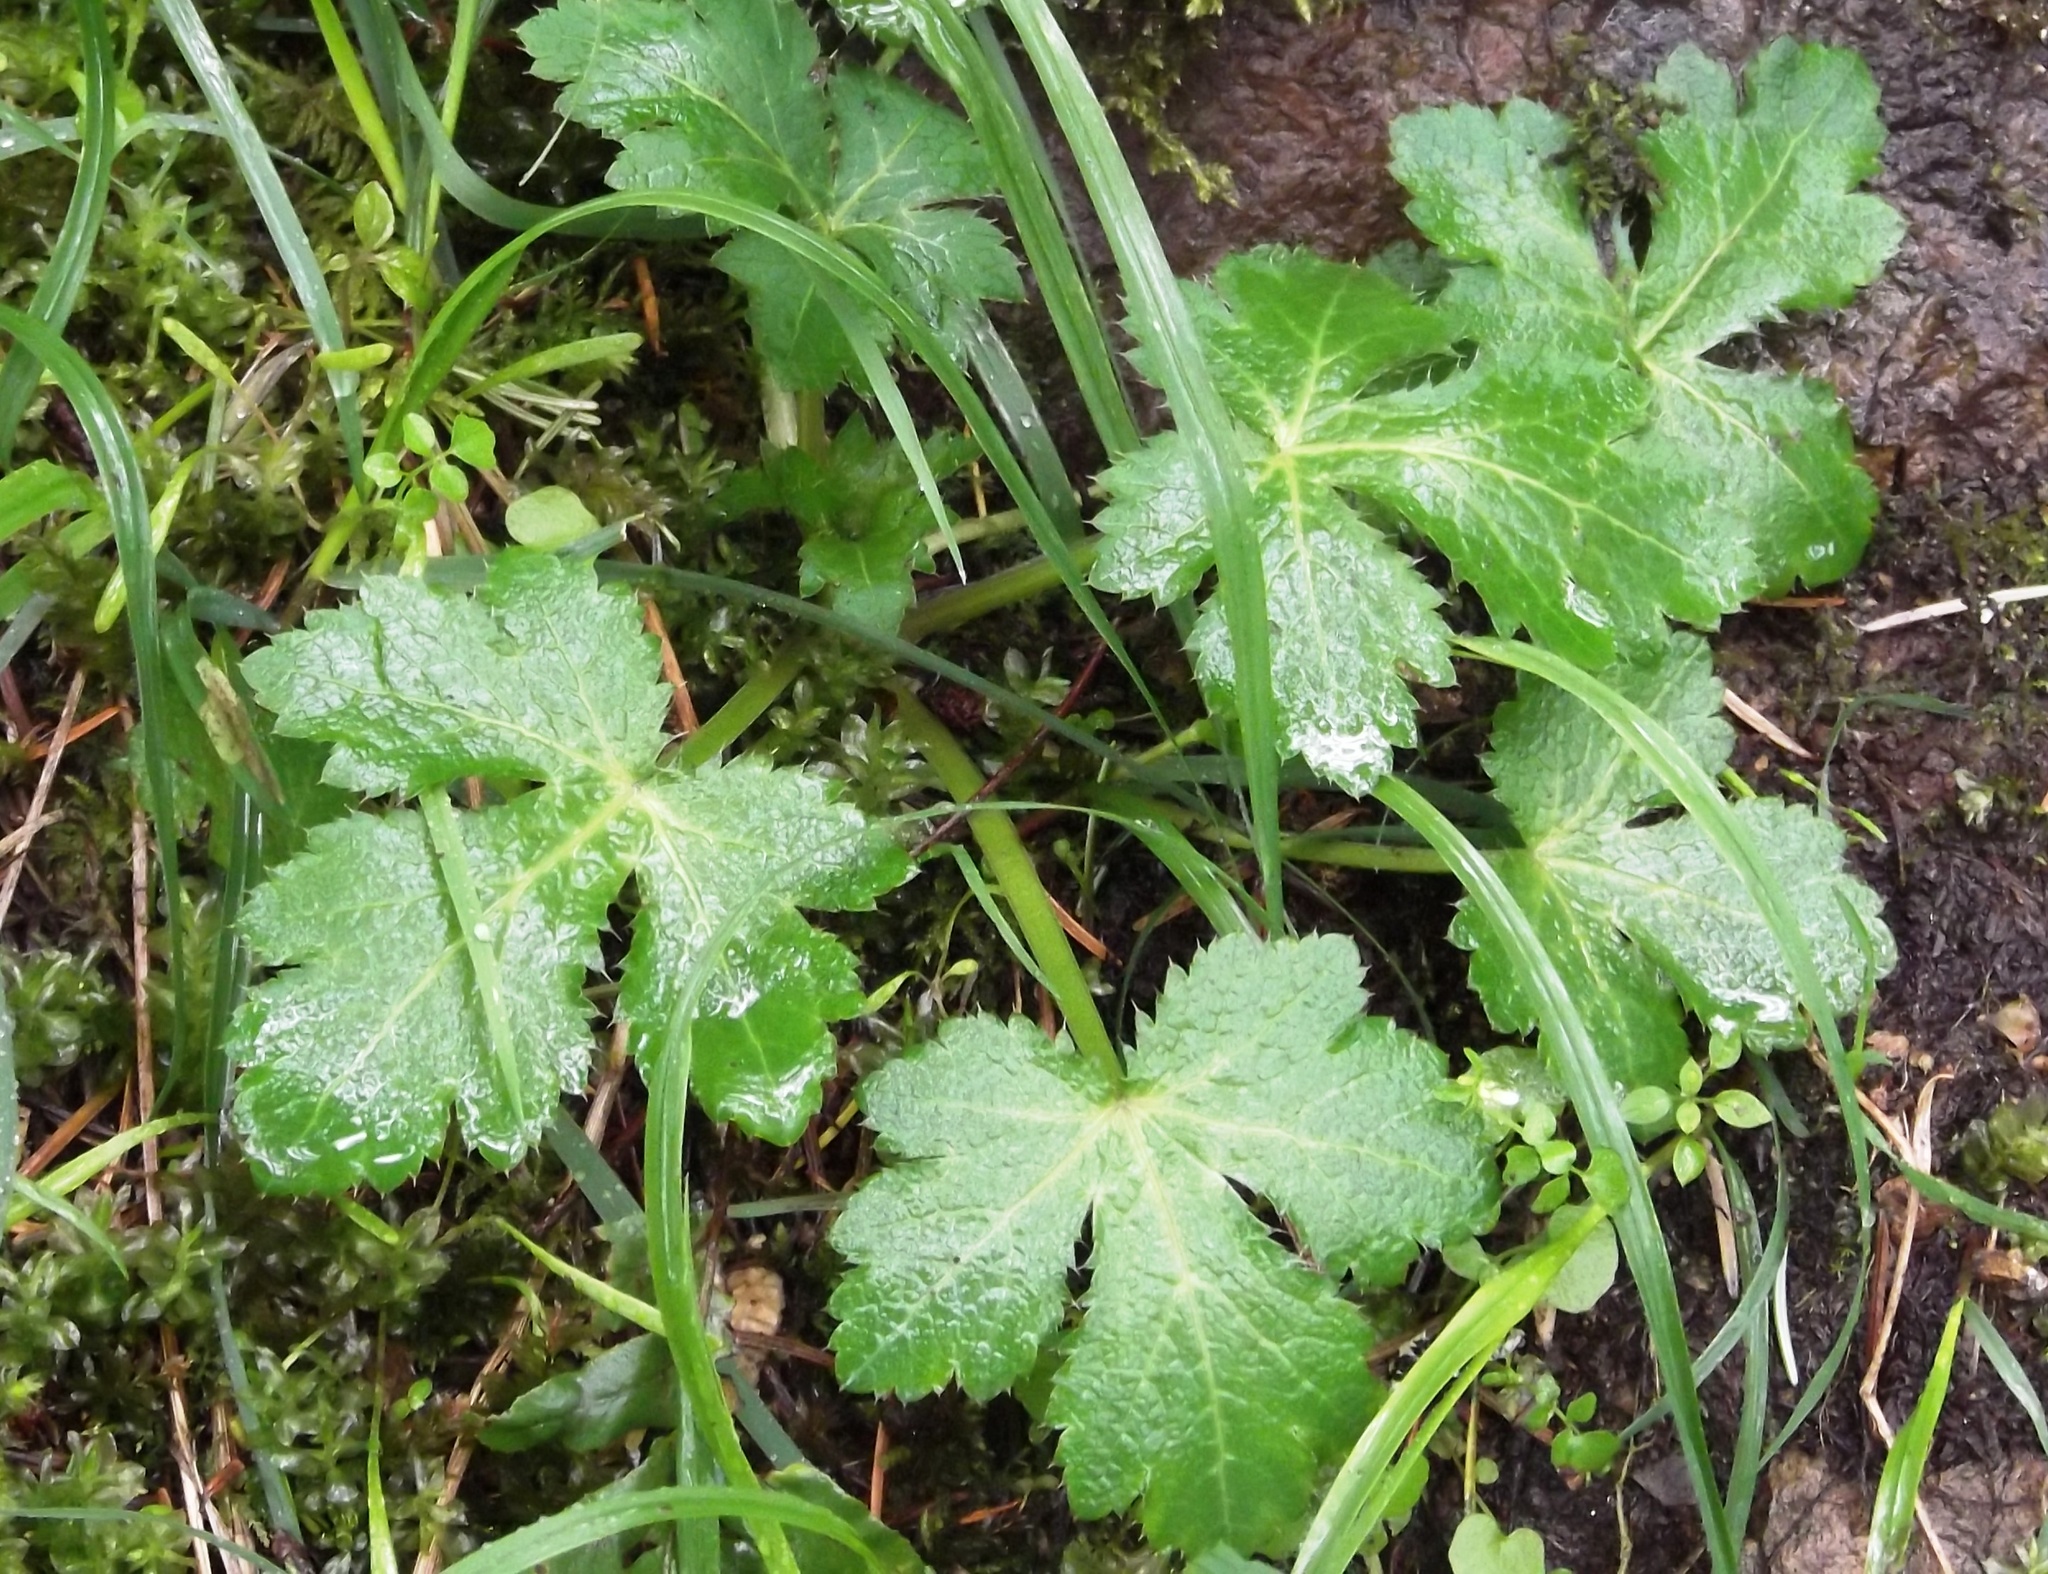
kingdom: Plantae
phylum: Tracheophyta
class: Magnoliopsida
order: Apiales
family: Apiaceae
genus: Sanicula
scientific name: Sanicula crassicaulis
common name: Western snakeroot
